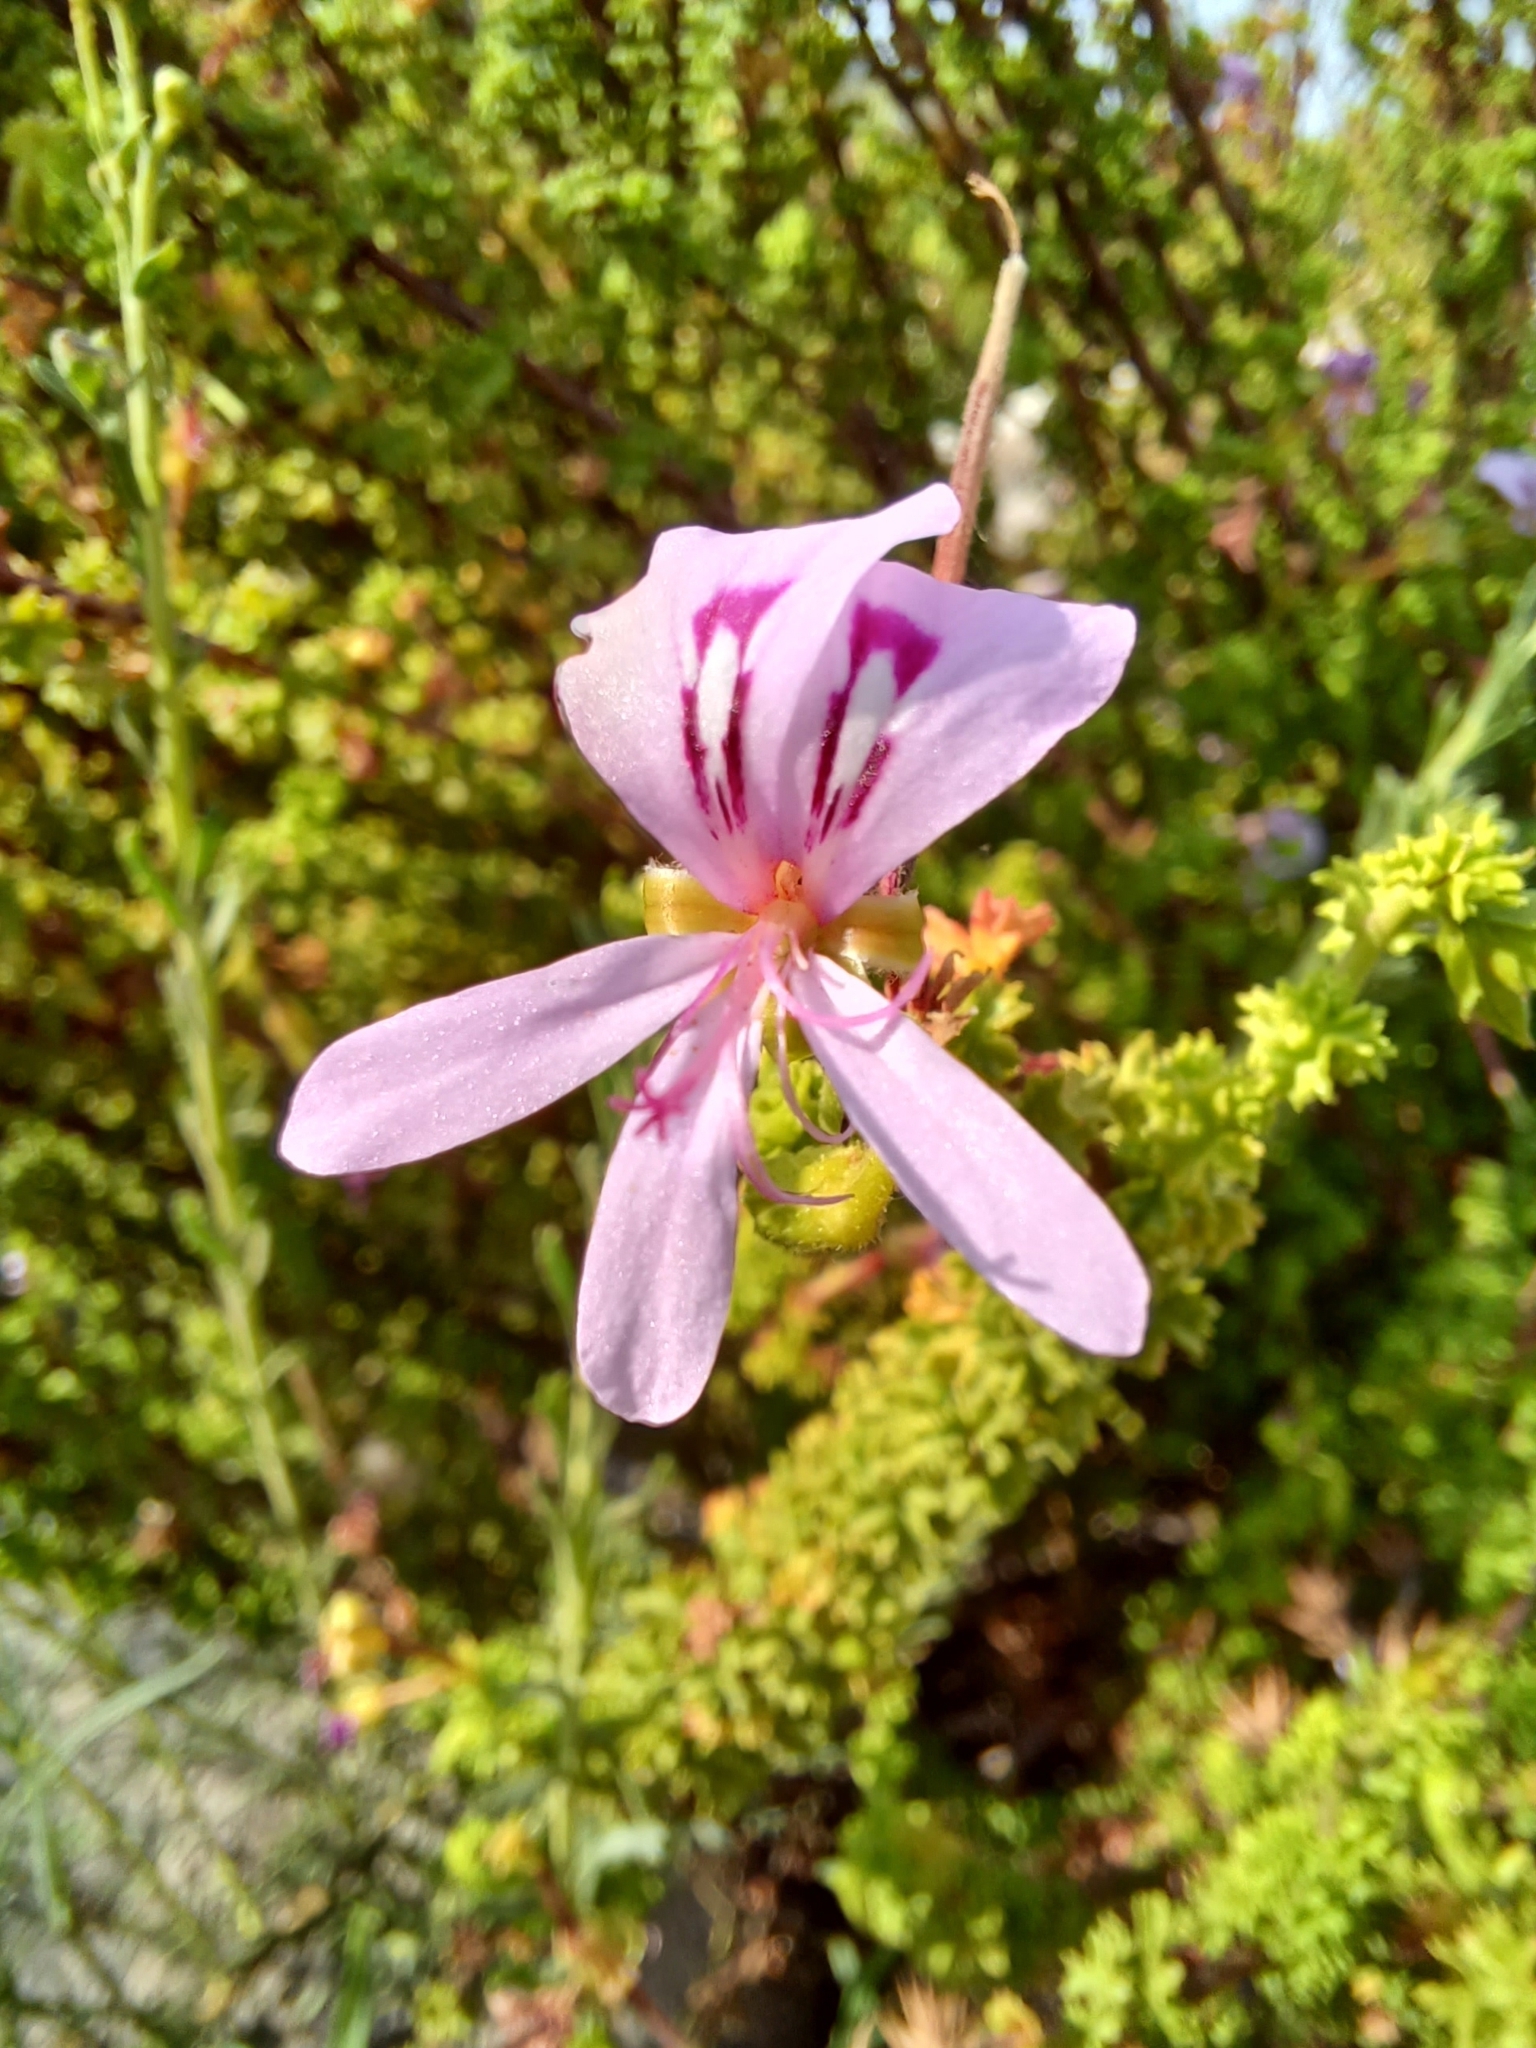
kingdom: Plantae
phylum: Tracheophyta
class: Magnoliopsida
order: Geraniales
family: Geraniaceae
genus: Pelargonium
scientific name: Pelargonium crispum
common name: Crisped-leaf pelargonium
